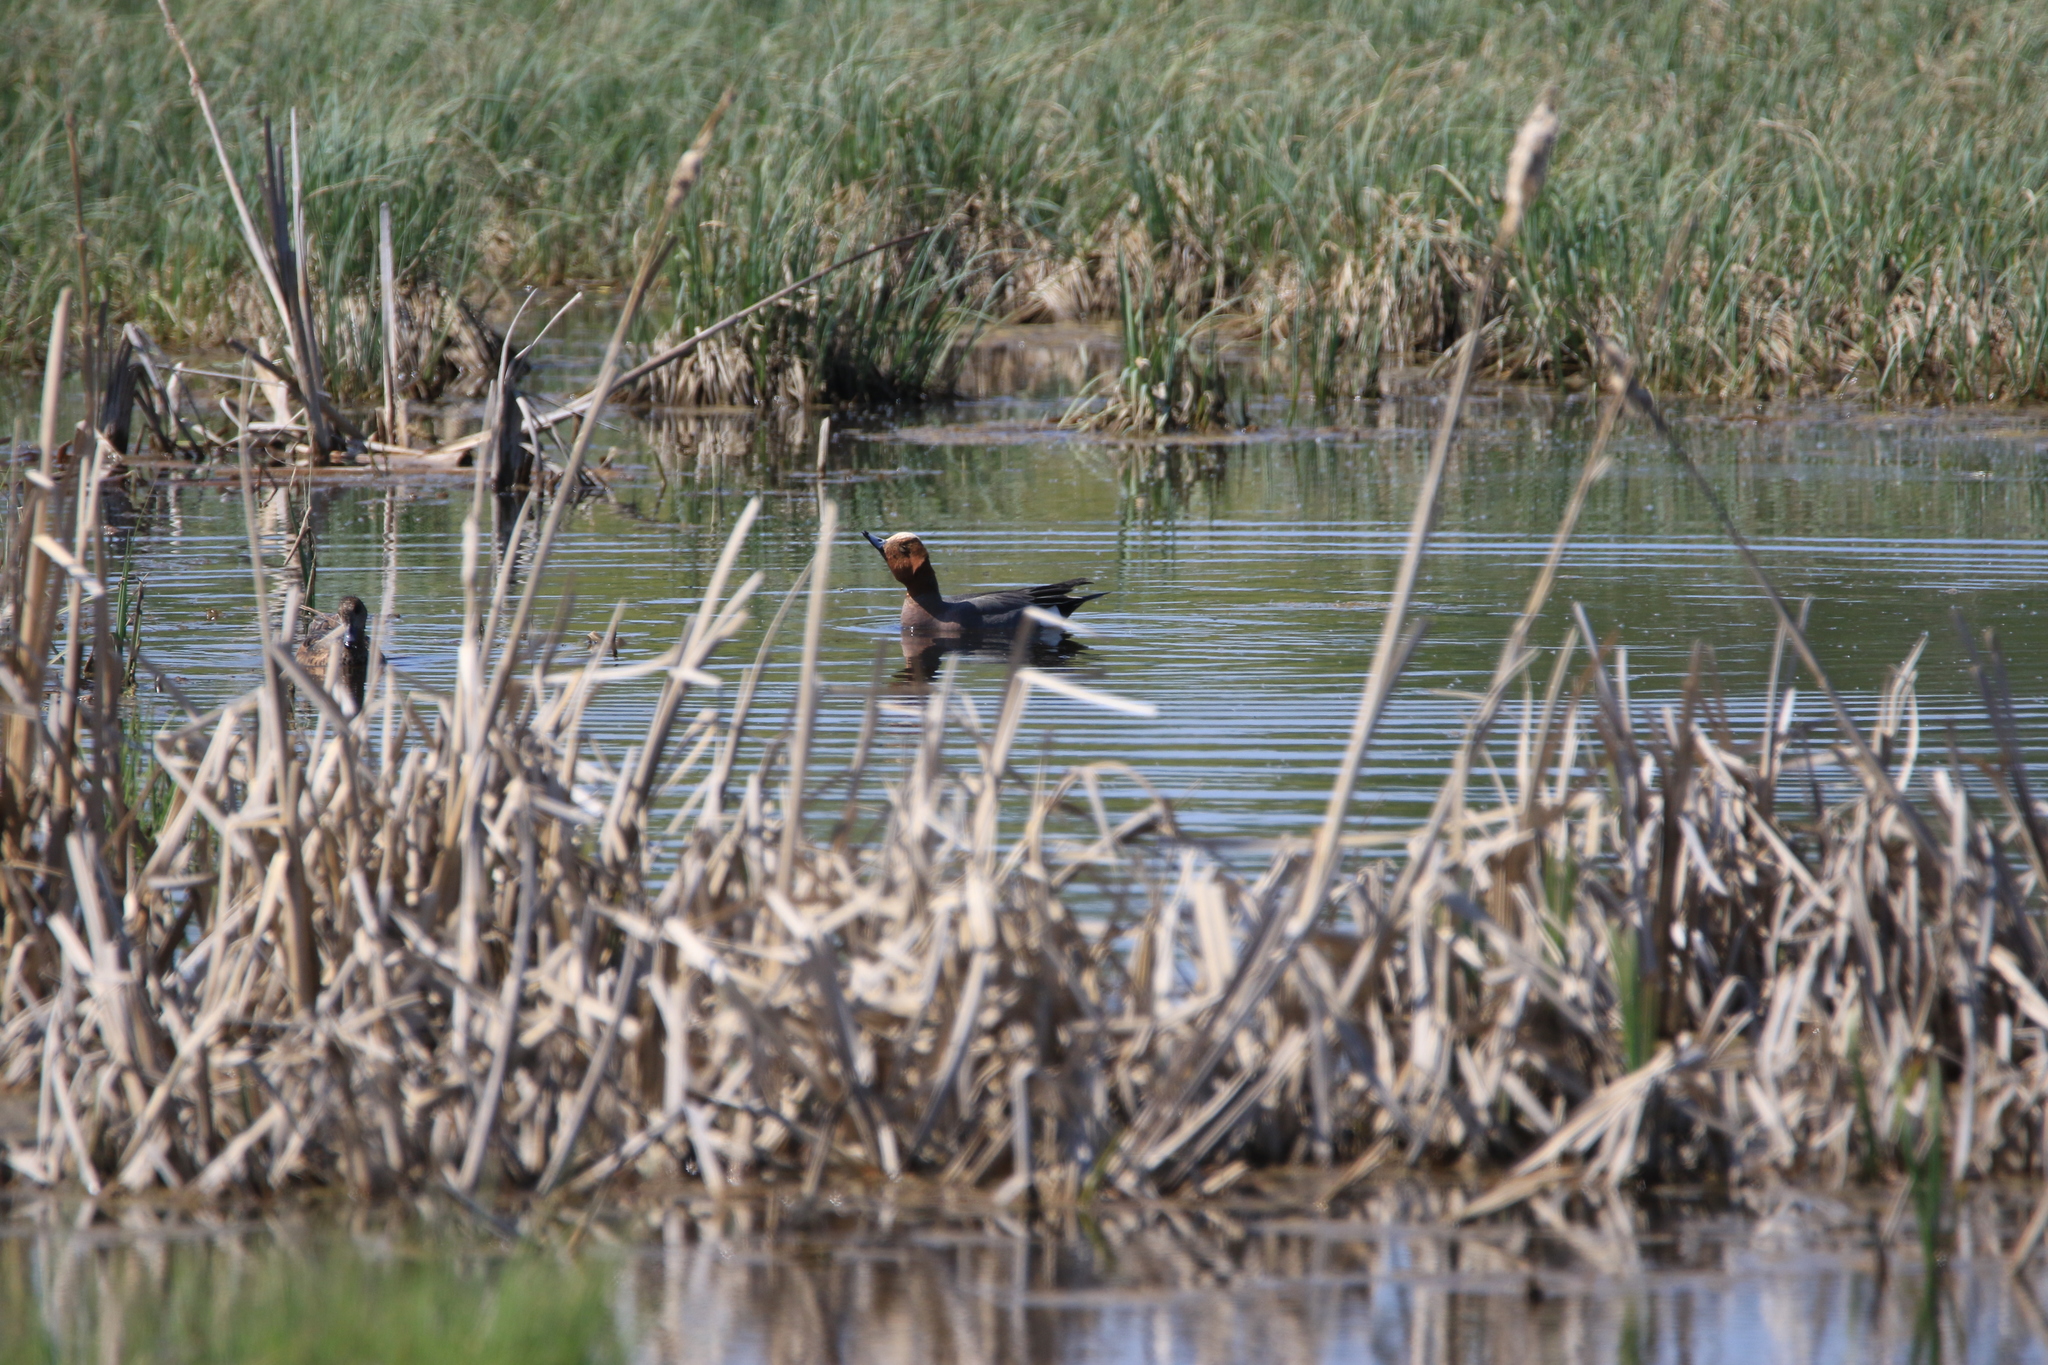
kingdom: Animalia
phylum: Chordata
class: Aves
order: Anseriformes
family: Anatidae
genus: Mareca
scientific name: Mareca penelope
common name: Eurasian wigeon
